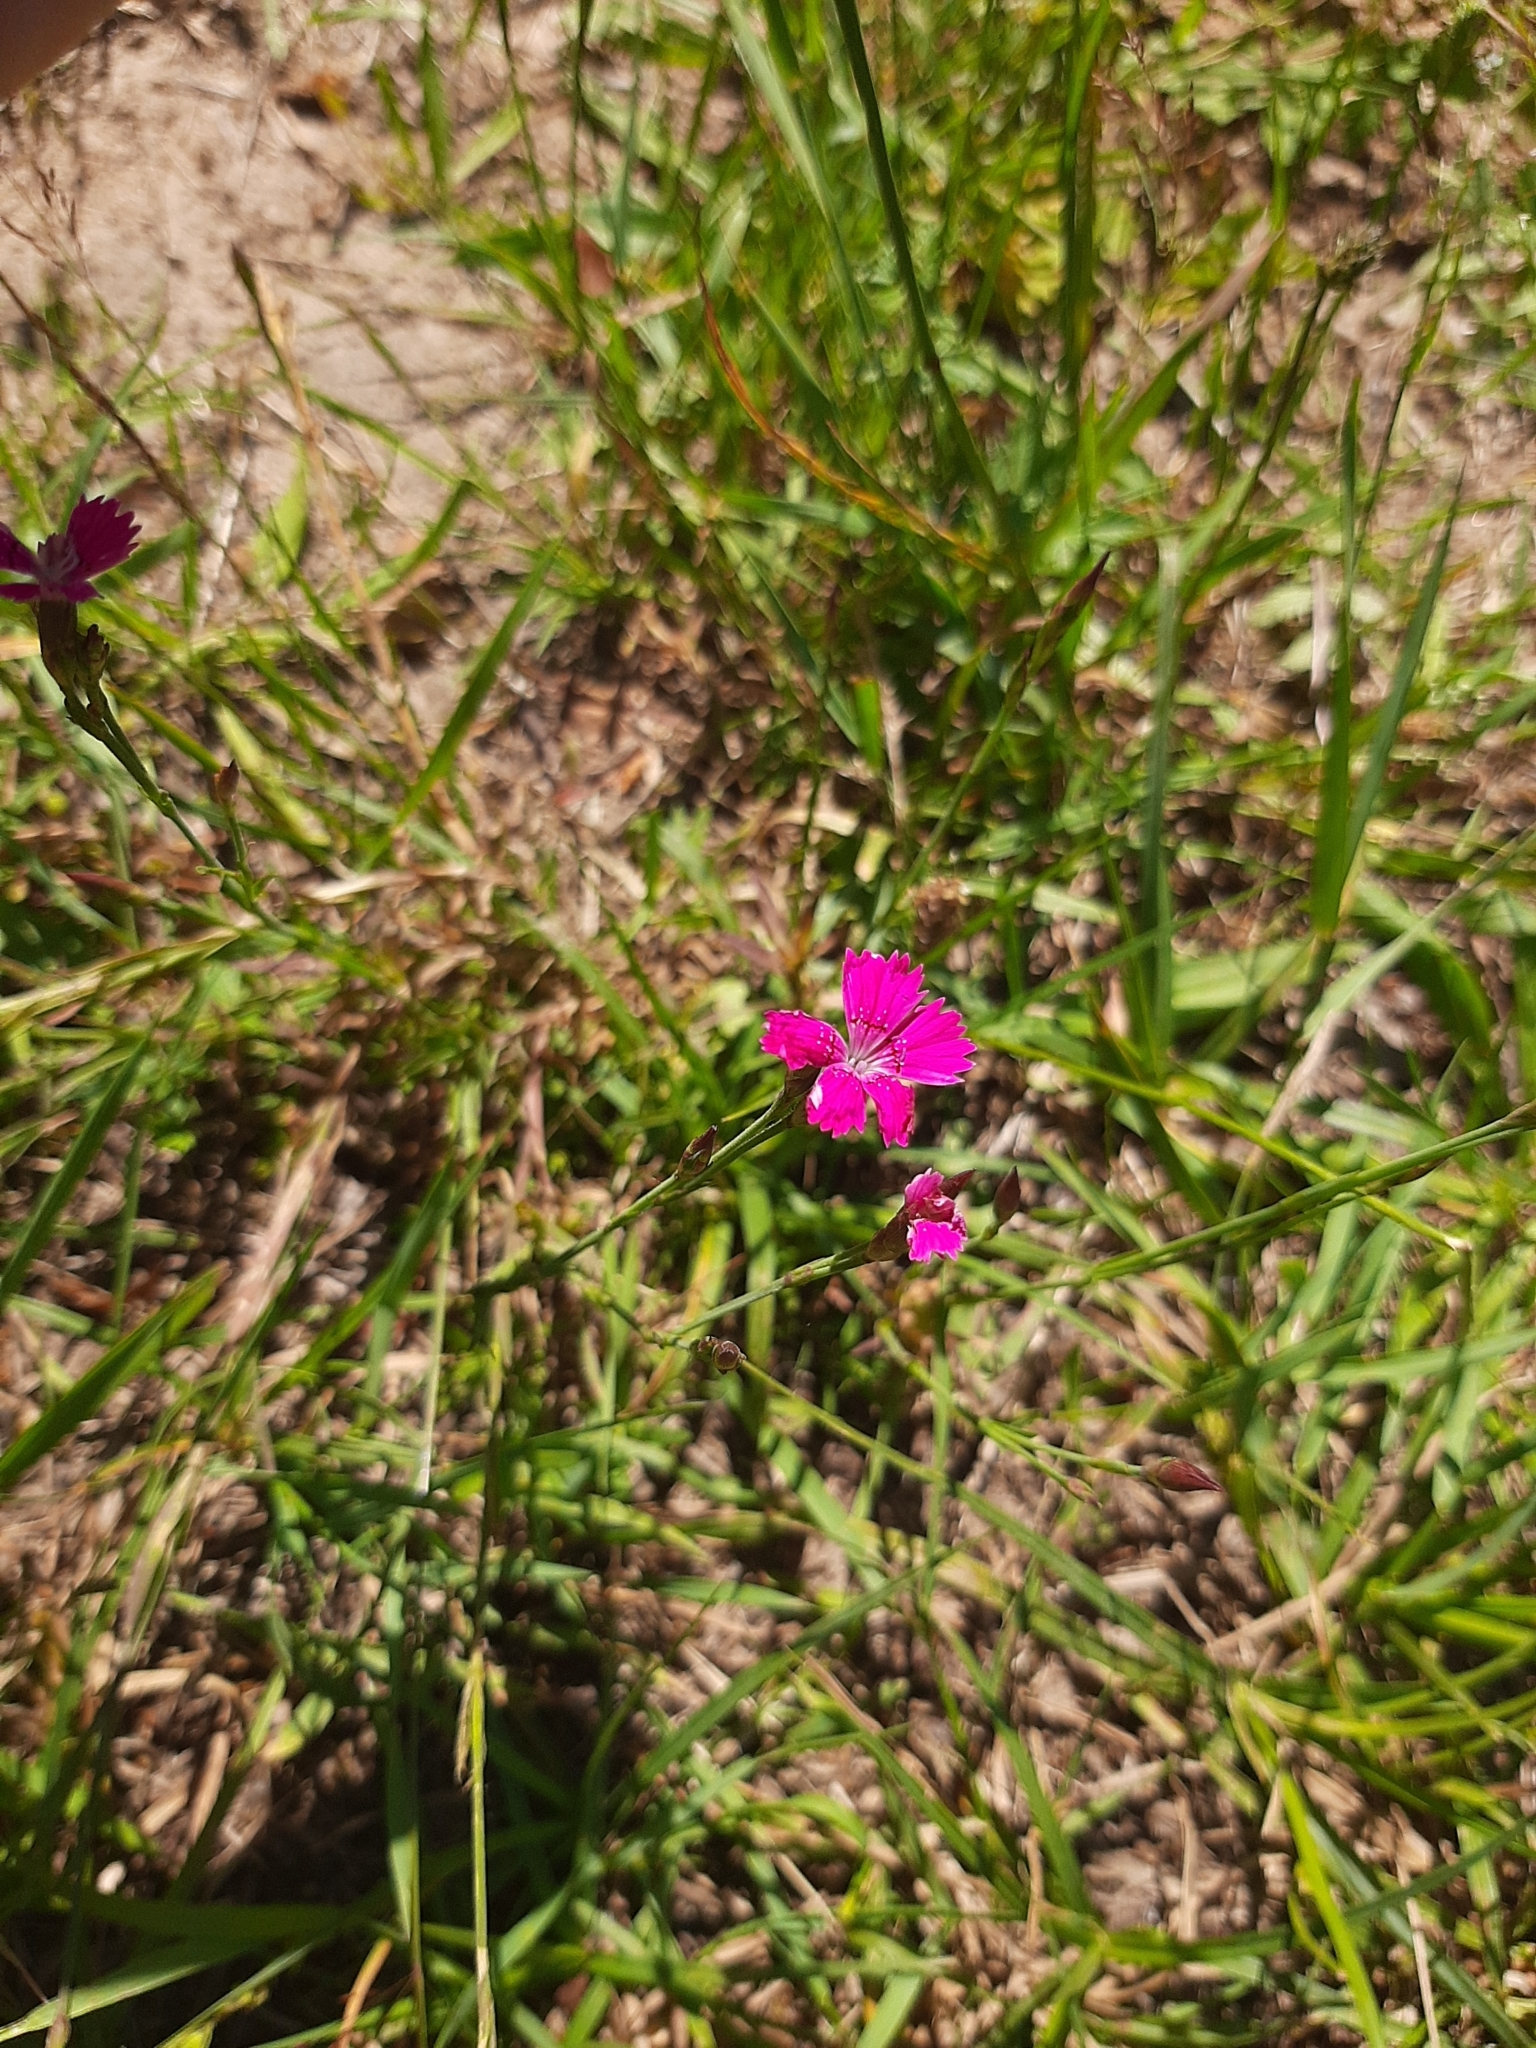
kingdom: Plantae
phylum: Tracheophyta
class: Magnoliopsida
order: Caryophyllales
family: Caryophyllaceae
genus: Dianthus
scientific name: Dianthus deltoides
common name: Maiden pink
